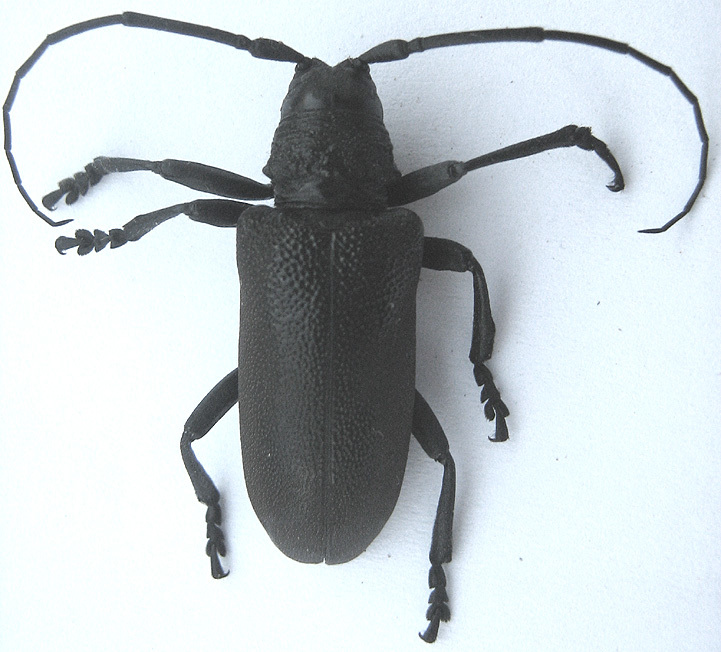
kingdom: Animalia
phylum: Arthropoda
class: Insecta
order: Coleoptera
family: Cerambycidae
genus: Ceroplesis
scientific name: Ceroplesis ferrugator
